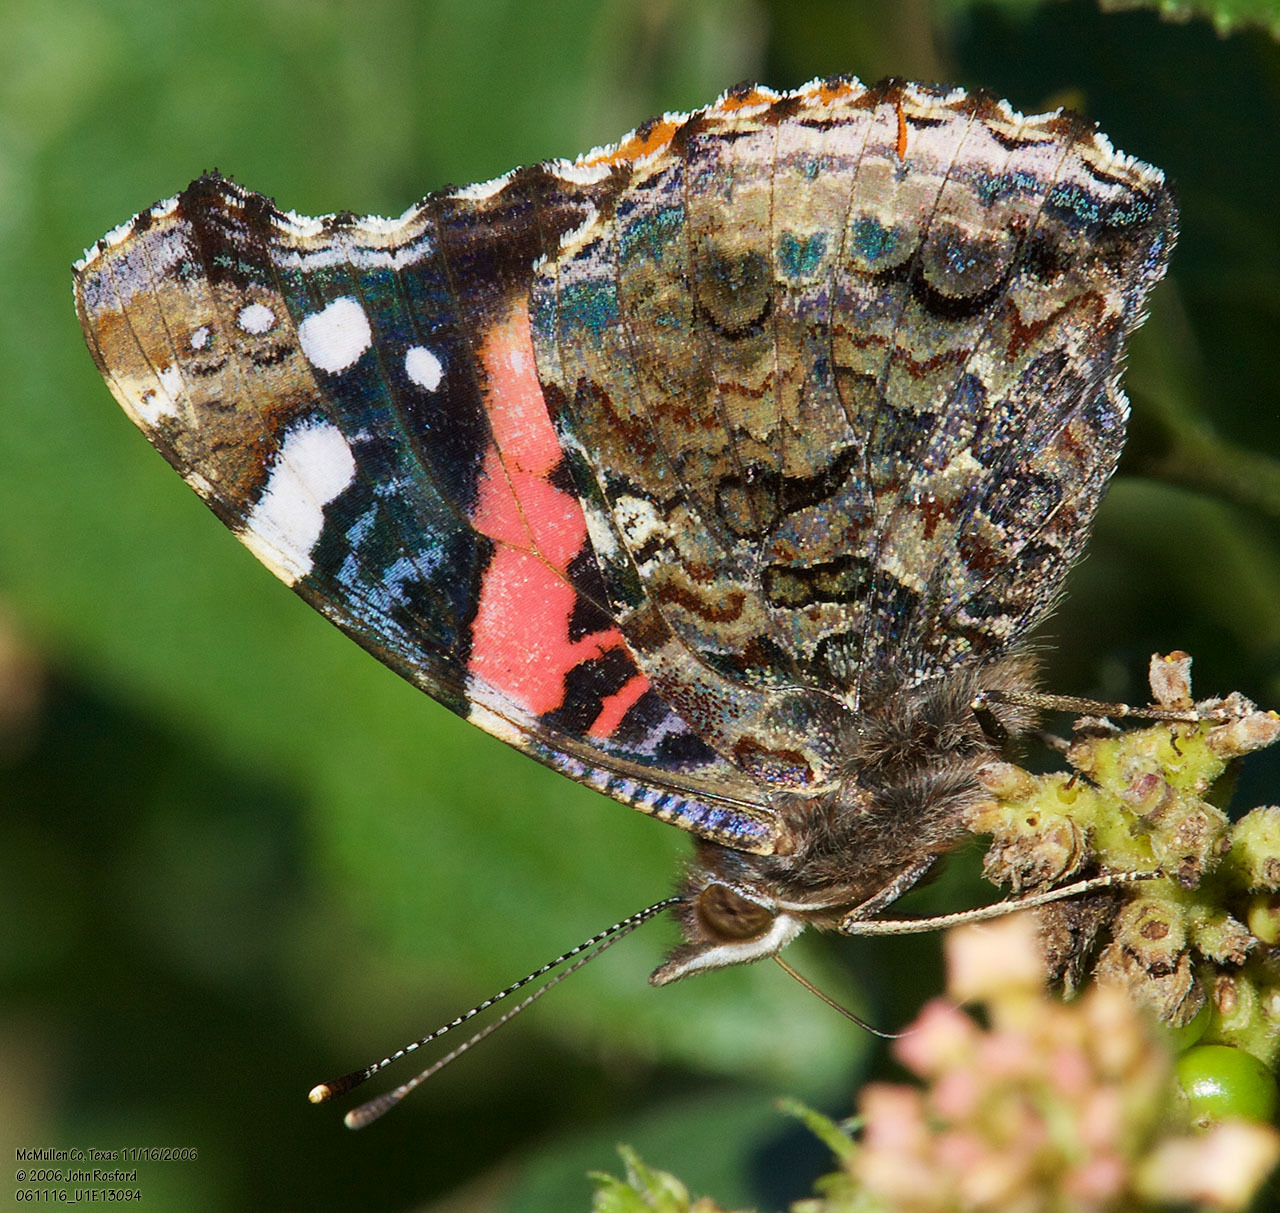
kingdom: Animalia
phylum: Arthropoda
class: Insecta
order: Lepidoptera
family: Nymphalidae
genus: Vanessa
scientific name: Vanessa atalanta
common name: Red admiral
